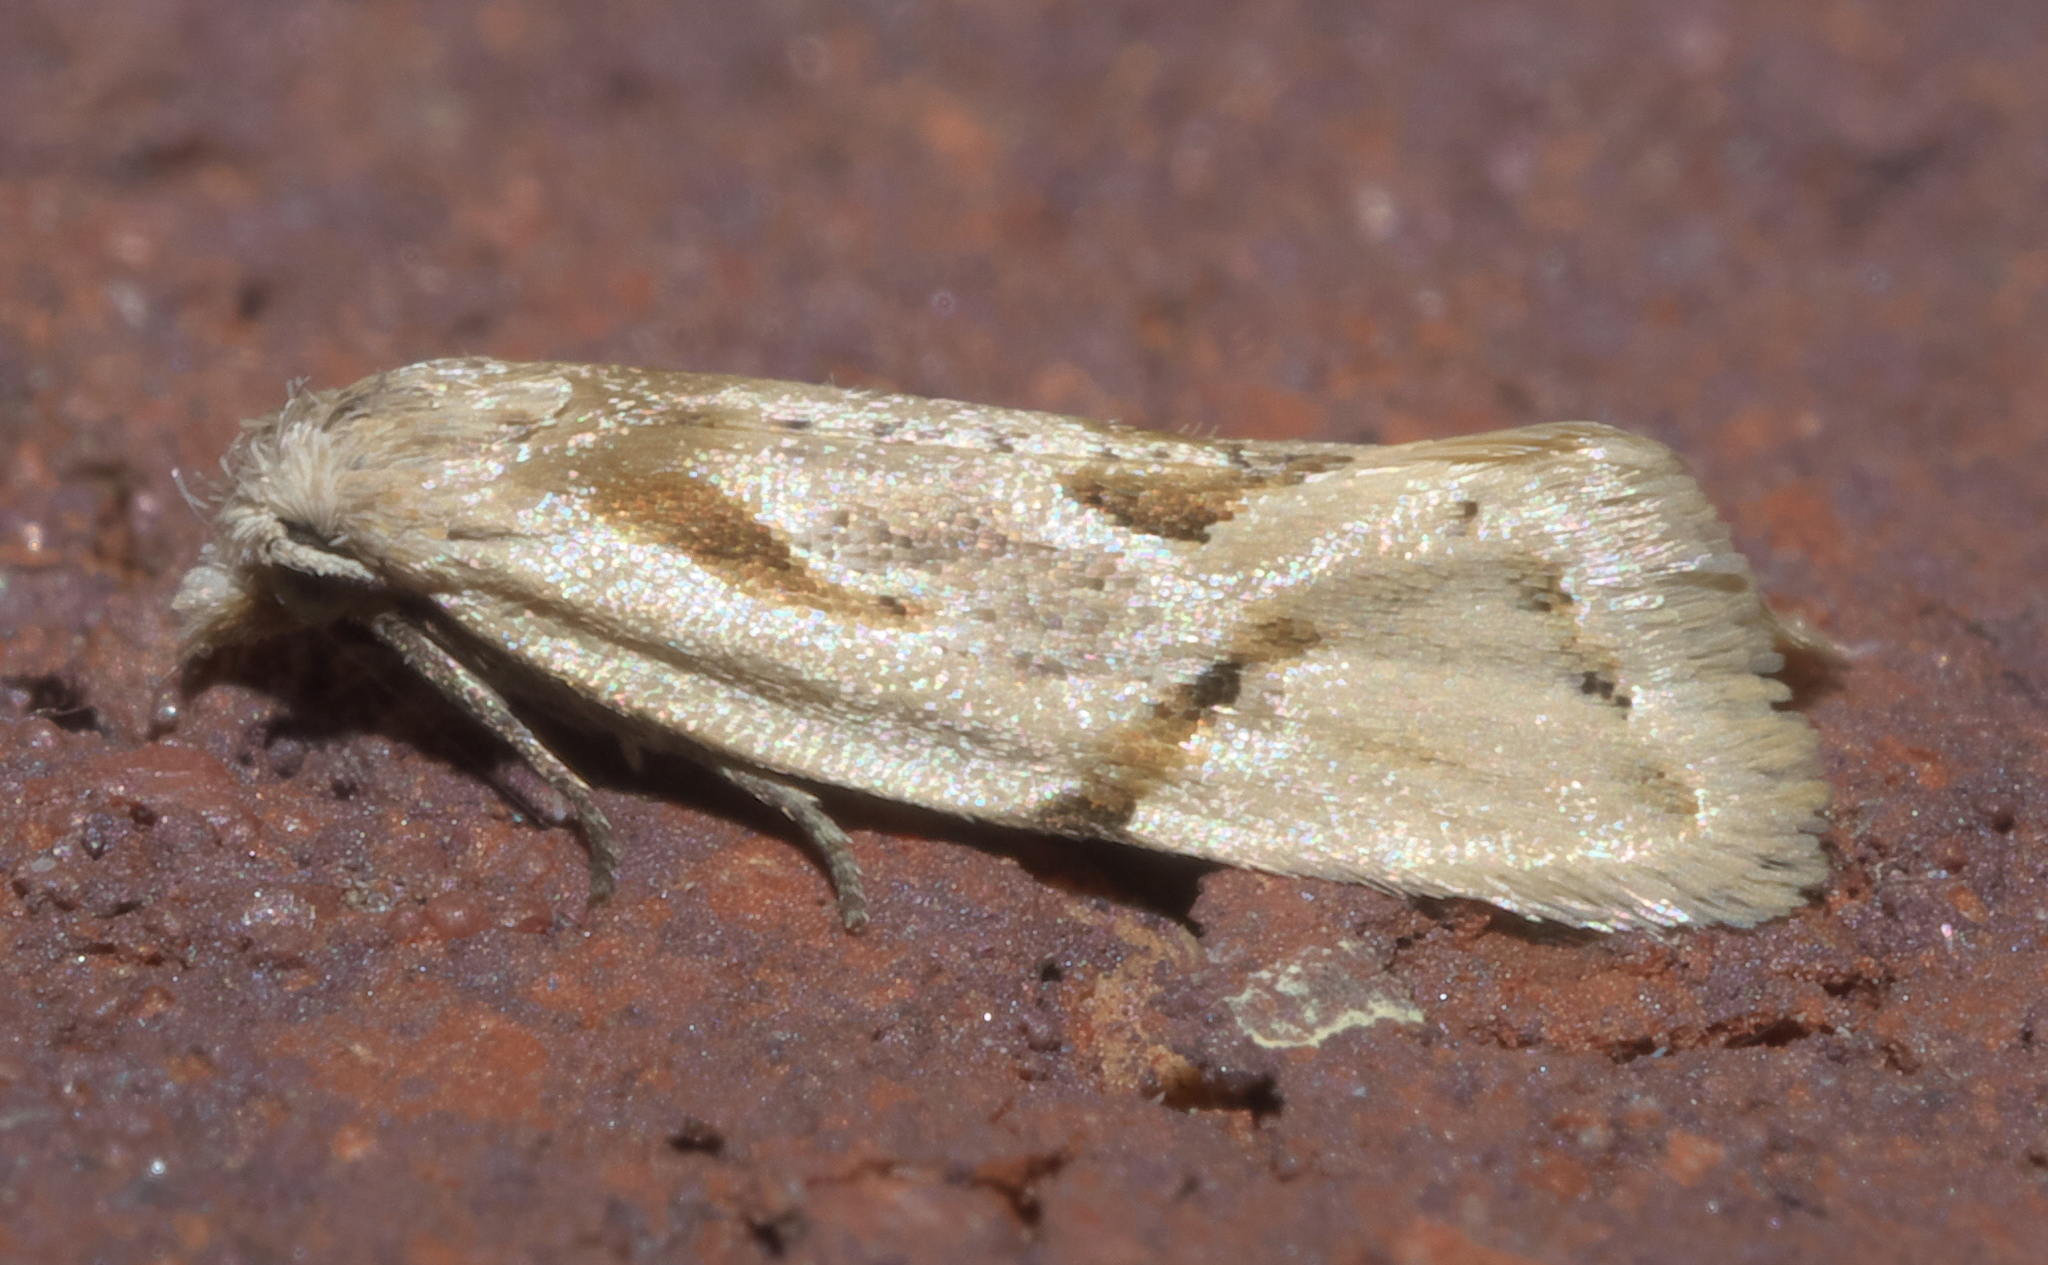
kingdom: Animalia
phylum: Arthropoda
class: Insecta
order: Lepidoptera
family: Tortricidae
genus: Aethes
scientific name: Aethes seriatana
